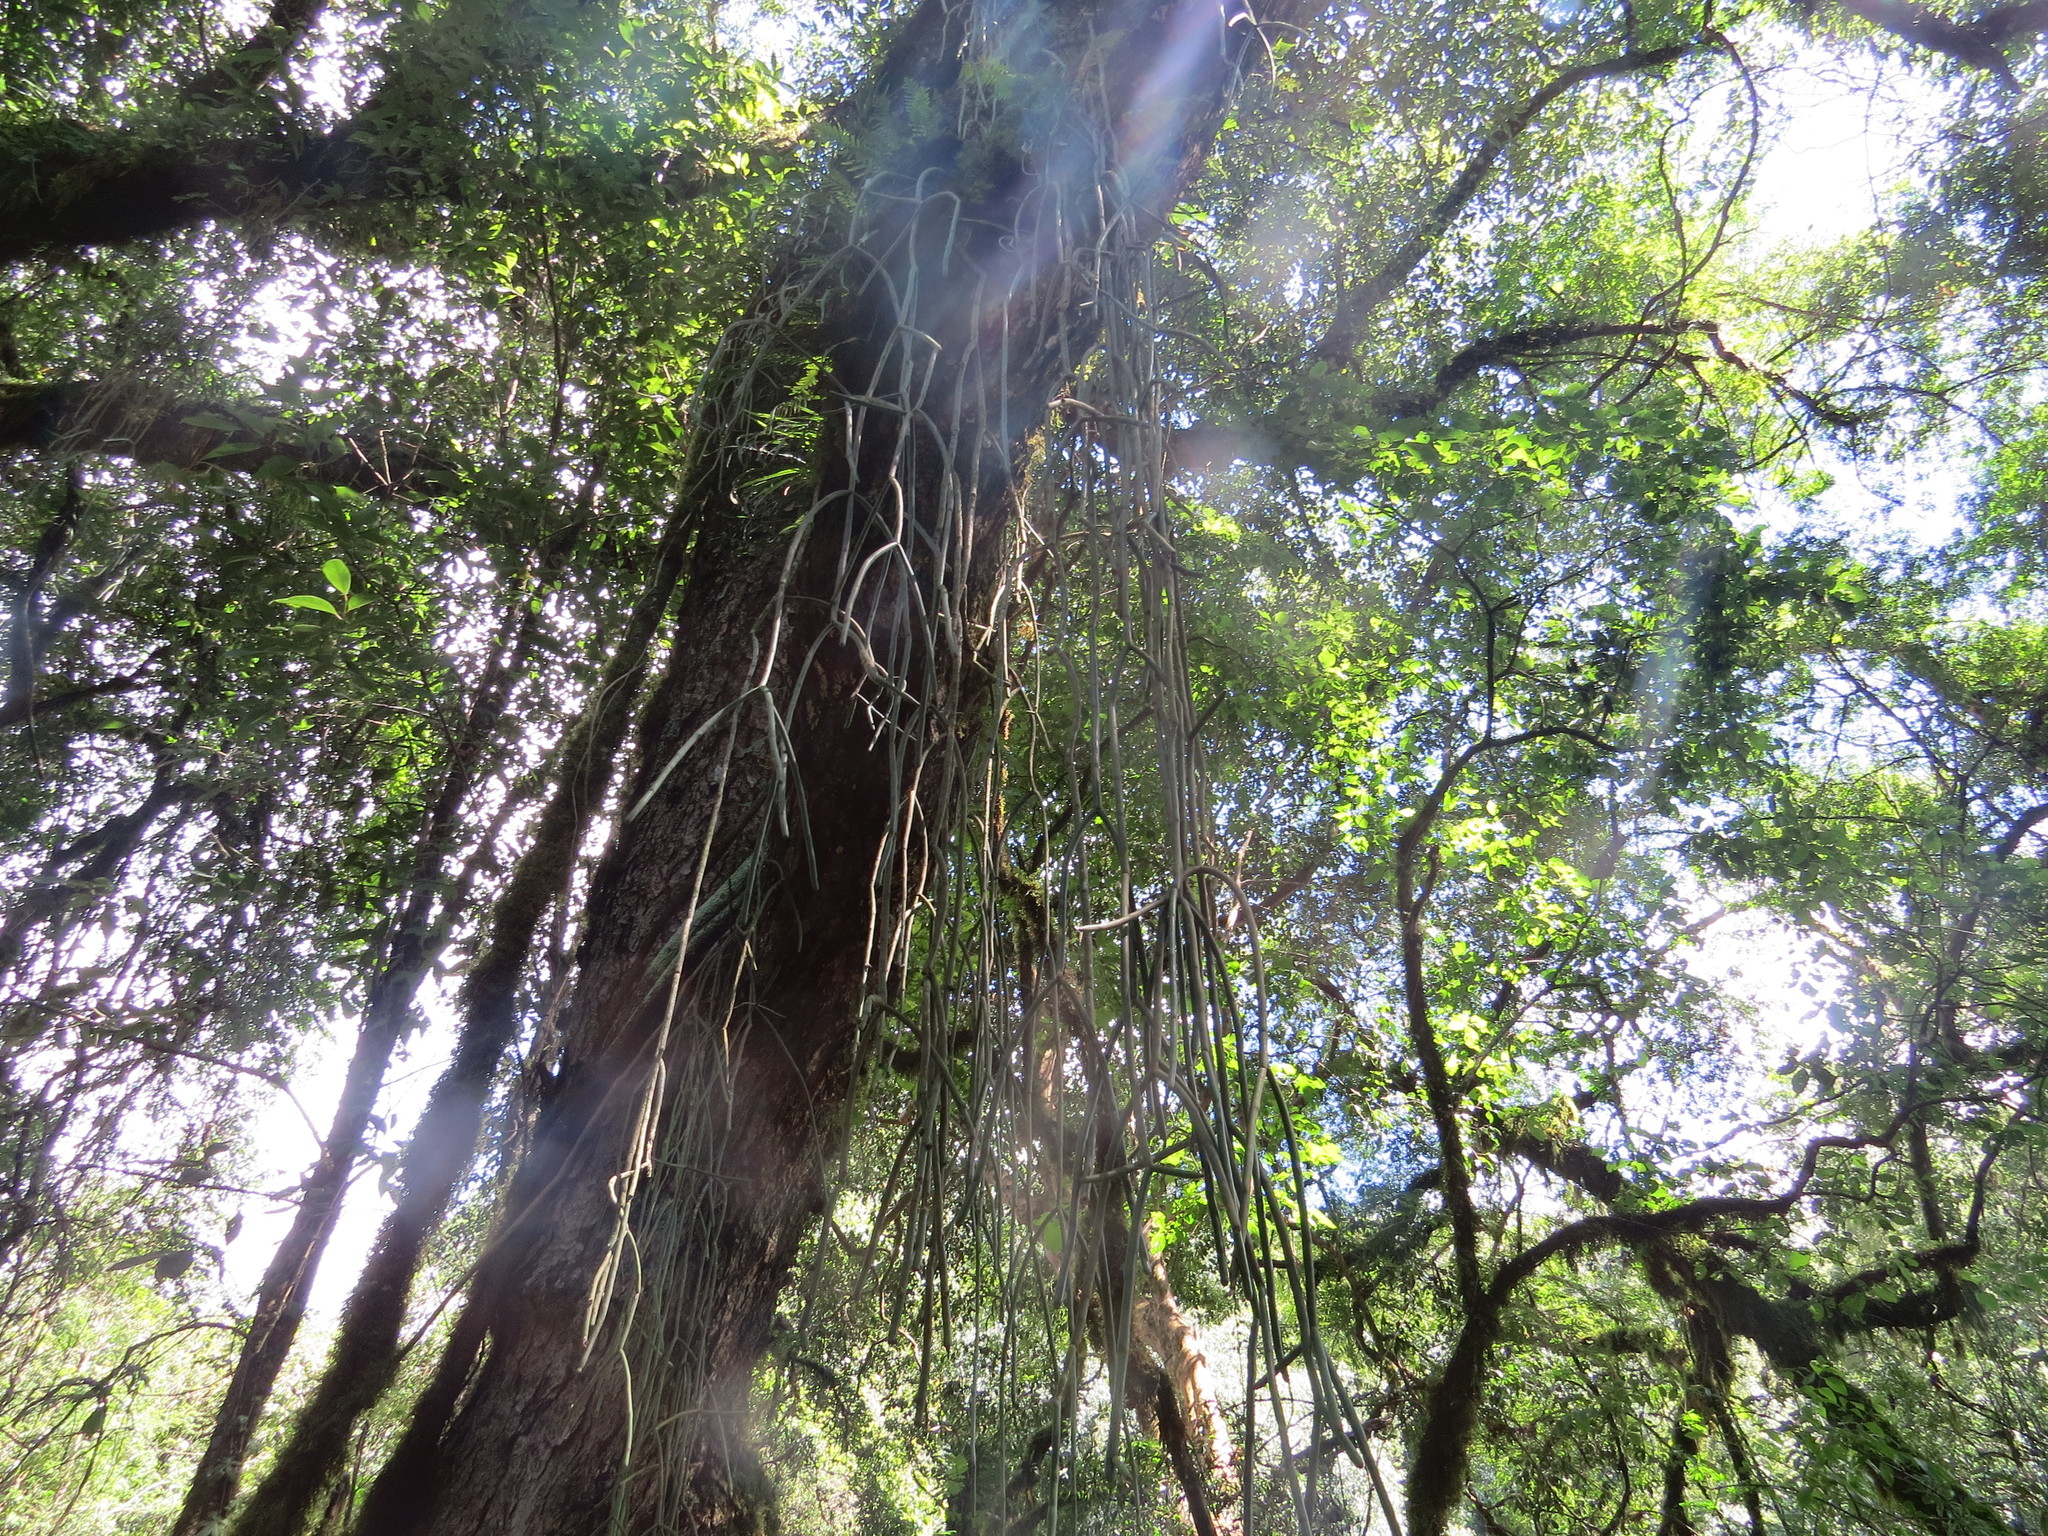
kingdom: Plantae
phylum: Tracheophyta
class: Magnoliopsida
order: Caryophyllales
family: Cactaceae
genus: Rhipsalis
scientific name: Rhipsalis floccosa
